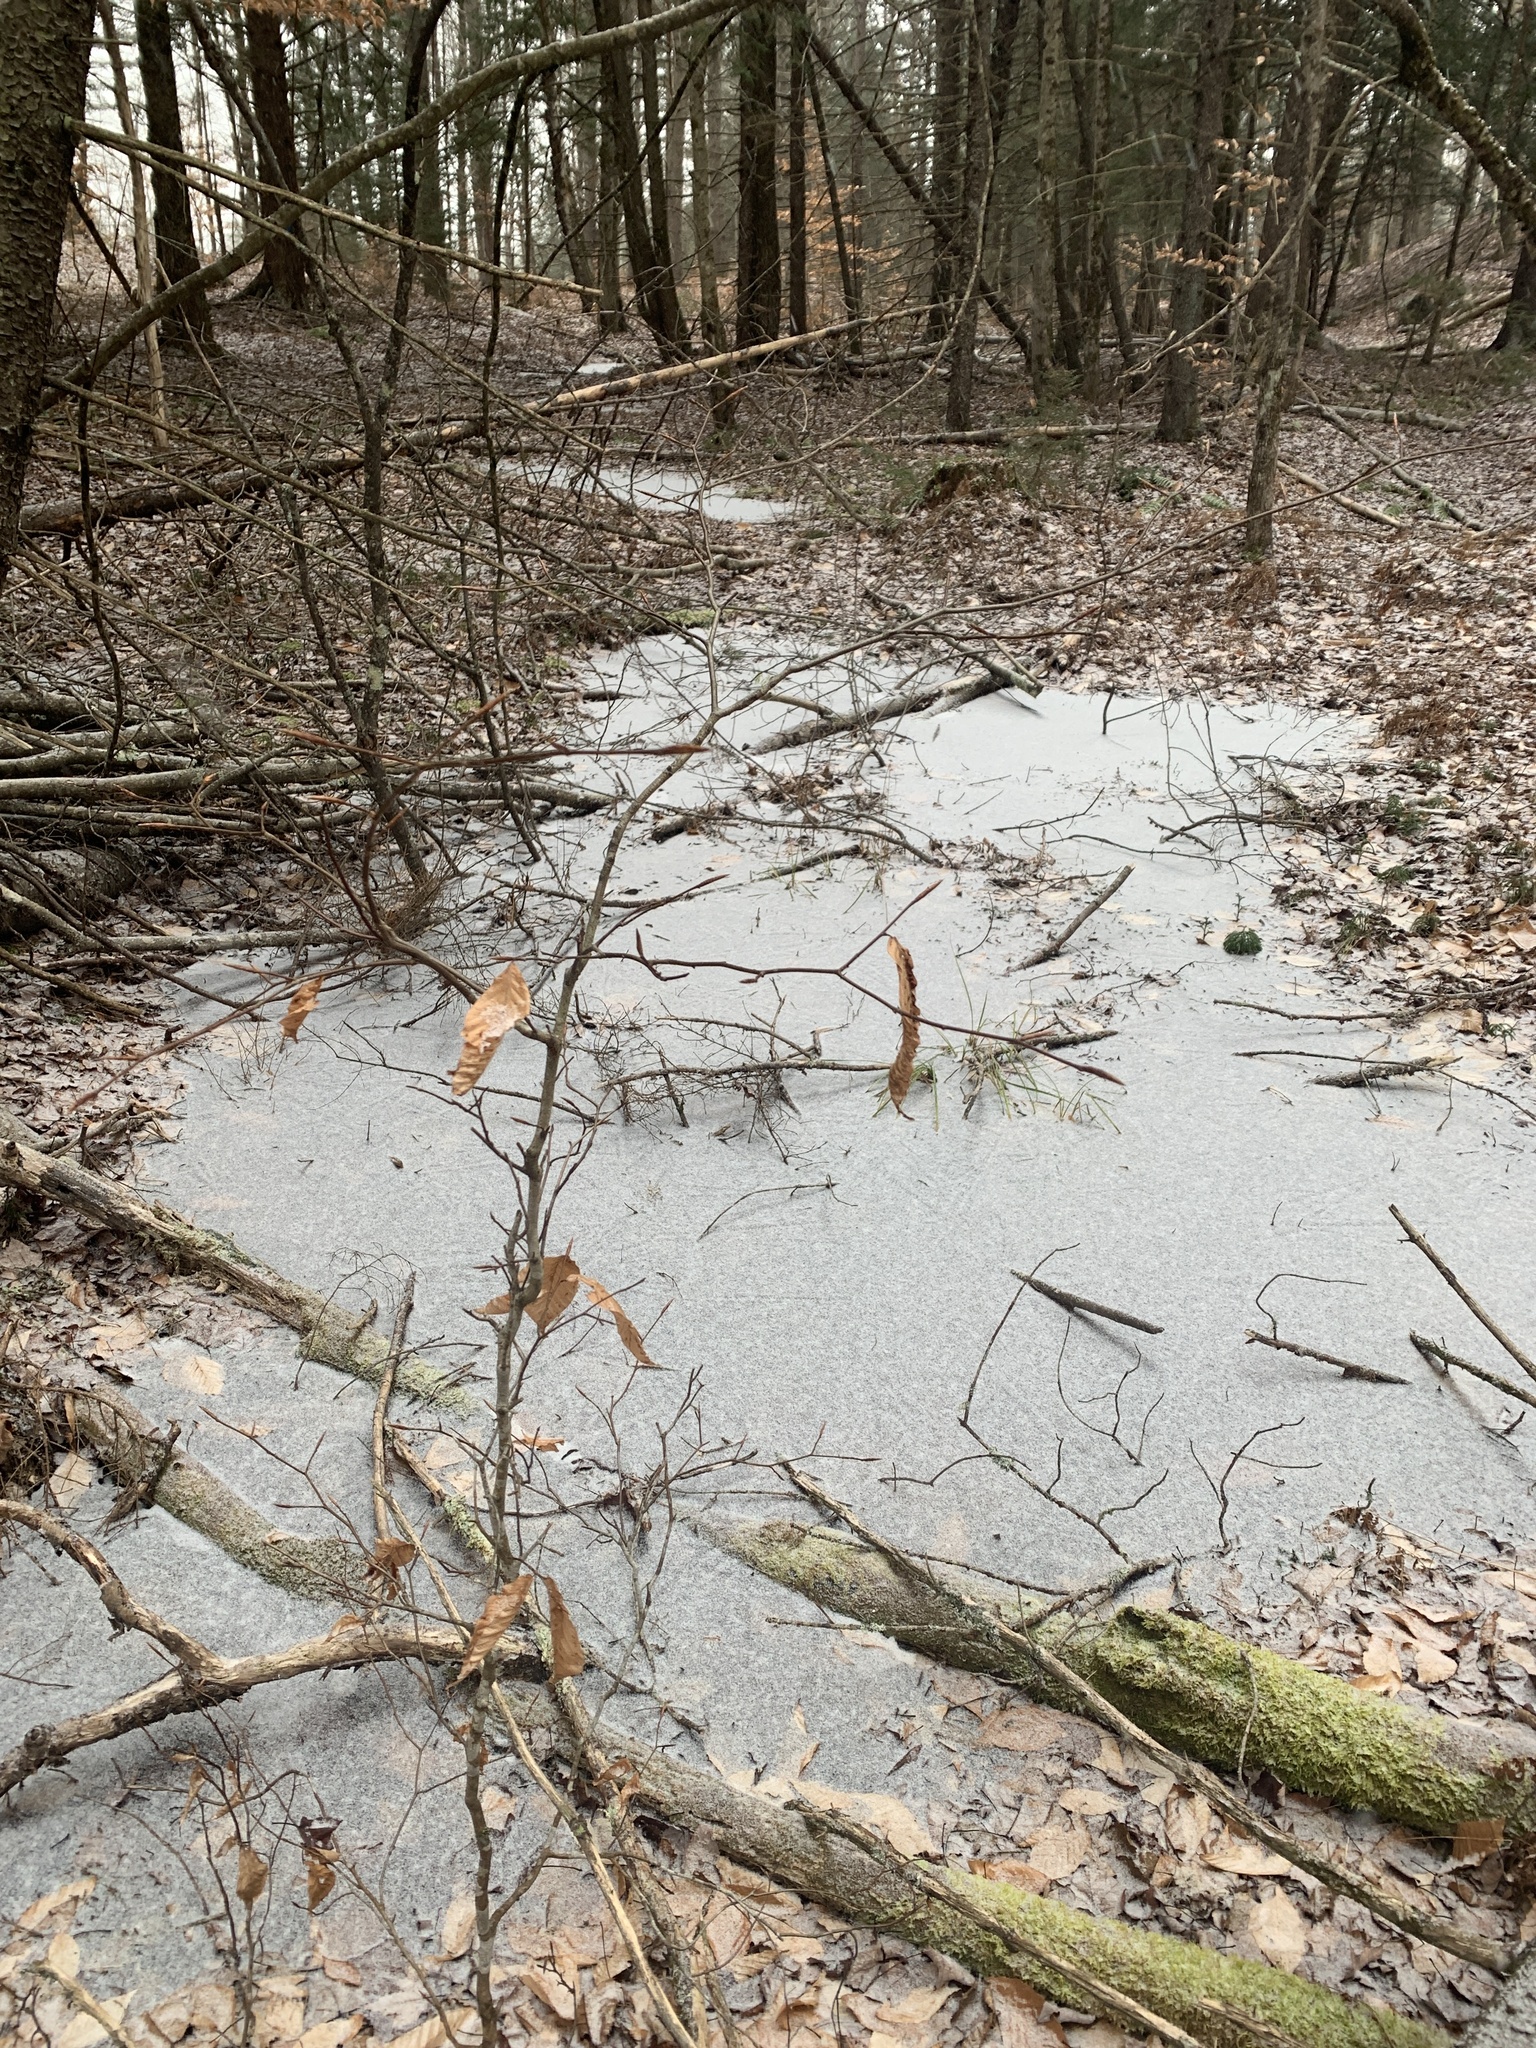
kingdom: Plantae
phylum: Tracheophyta
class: Magnoliopsida
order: Fagales
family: Fagaceae
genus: Fagus
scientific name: Fagus grandifolia
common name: American beech
